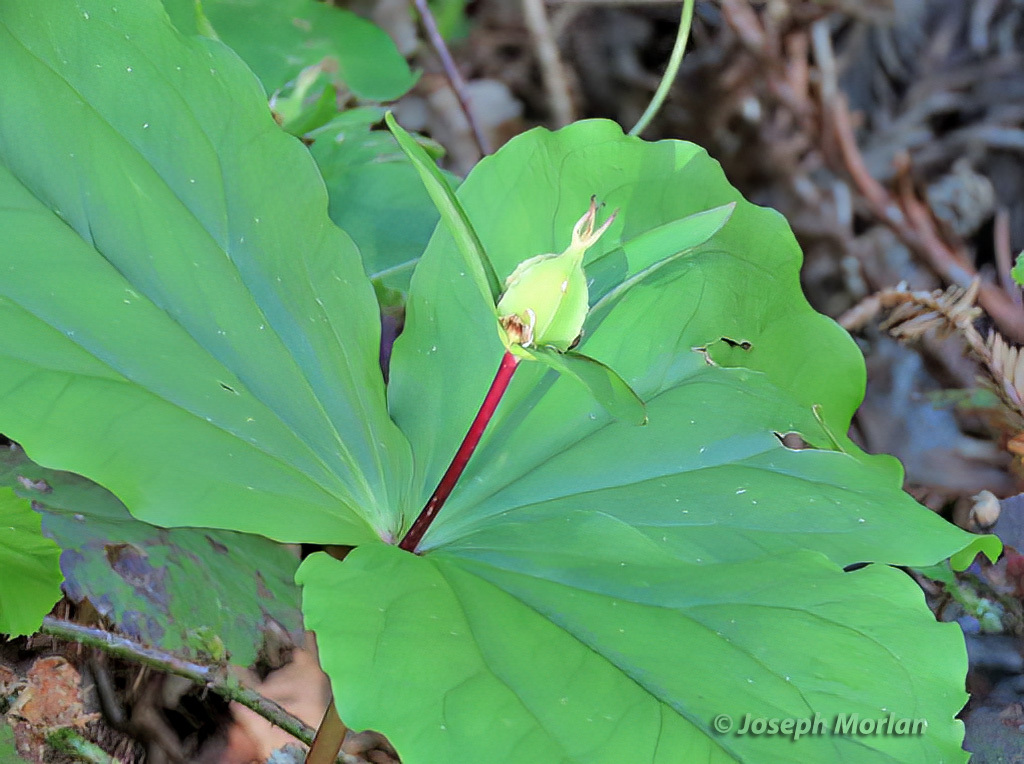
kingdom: Plantae
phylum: Tracheophyta
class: Liliopsida
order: Liliales
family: Melanthiaceae
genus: Trillium
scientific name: Trillium ovatum
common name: Pacific trillium
